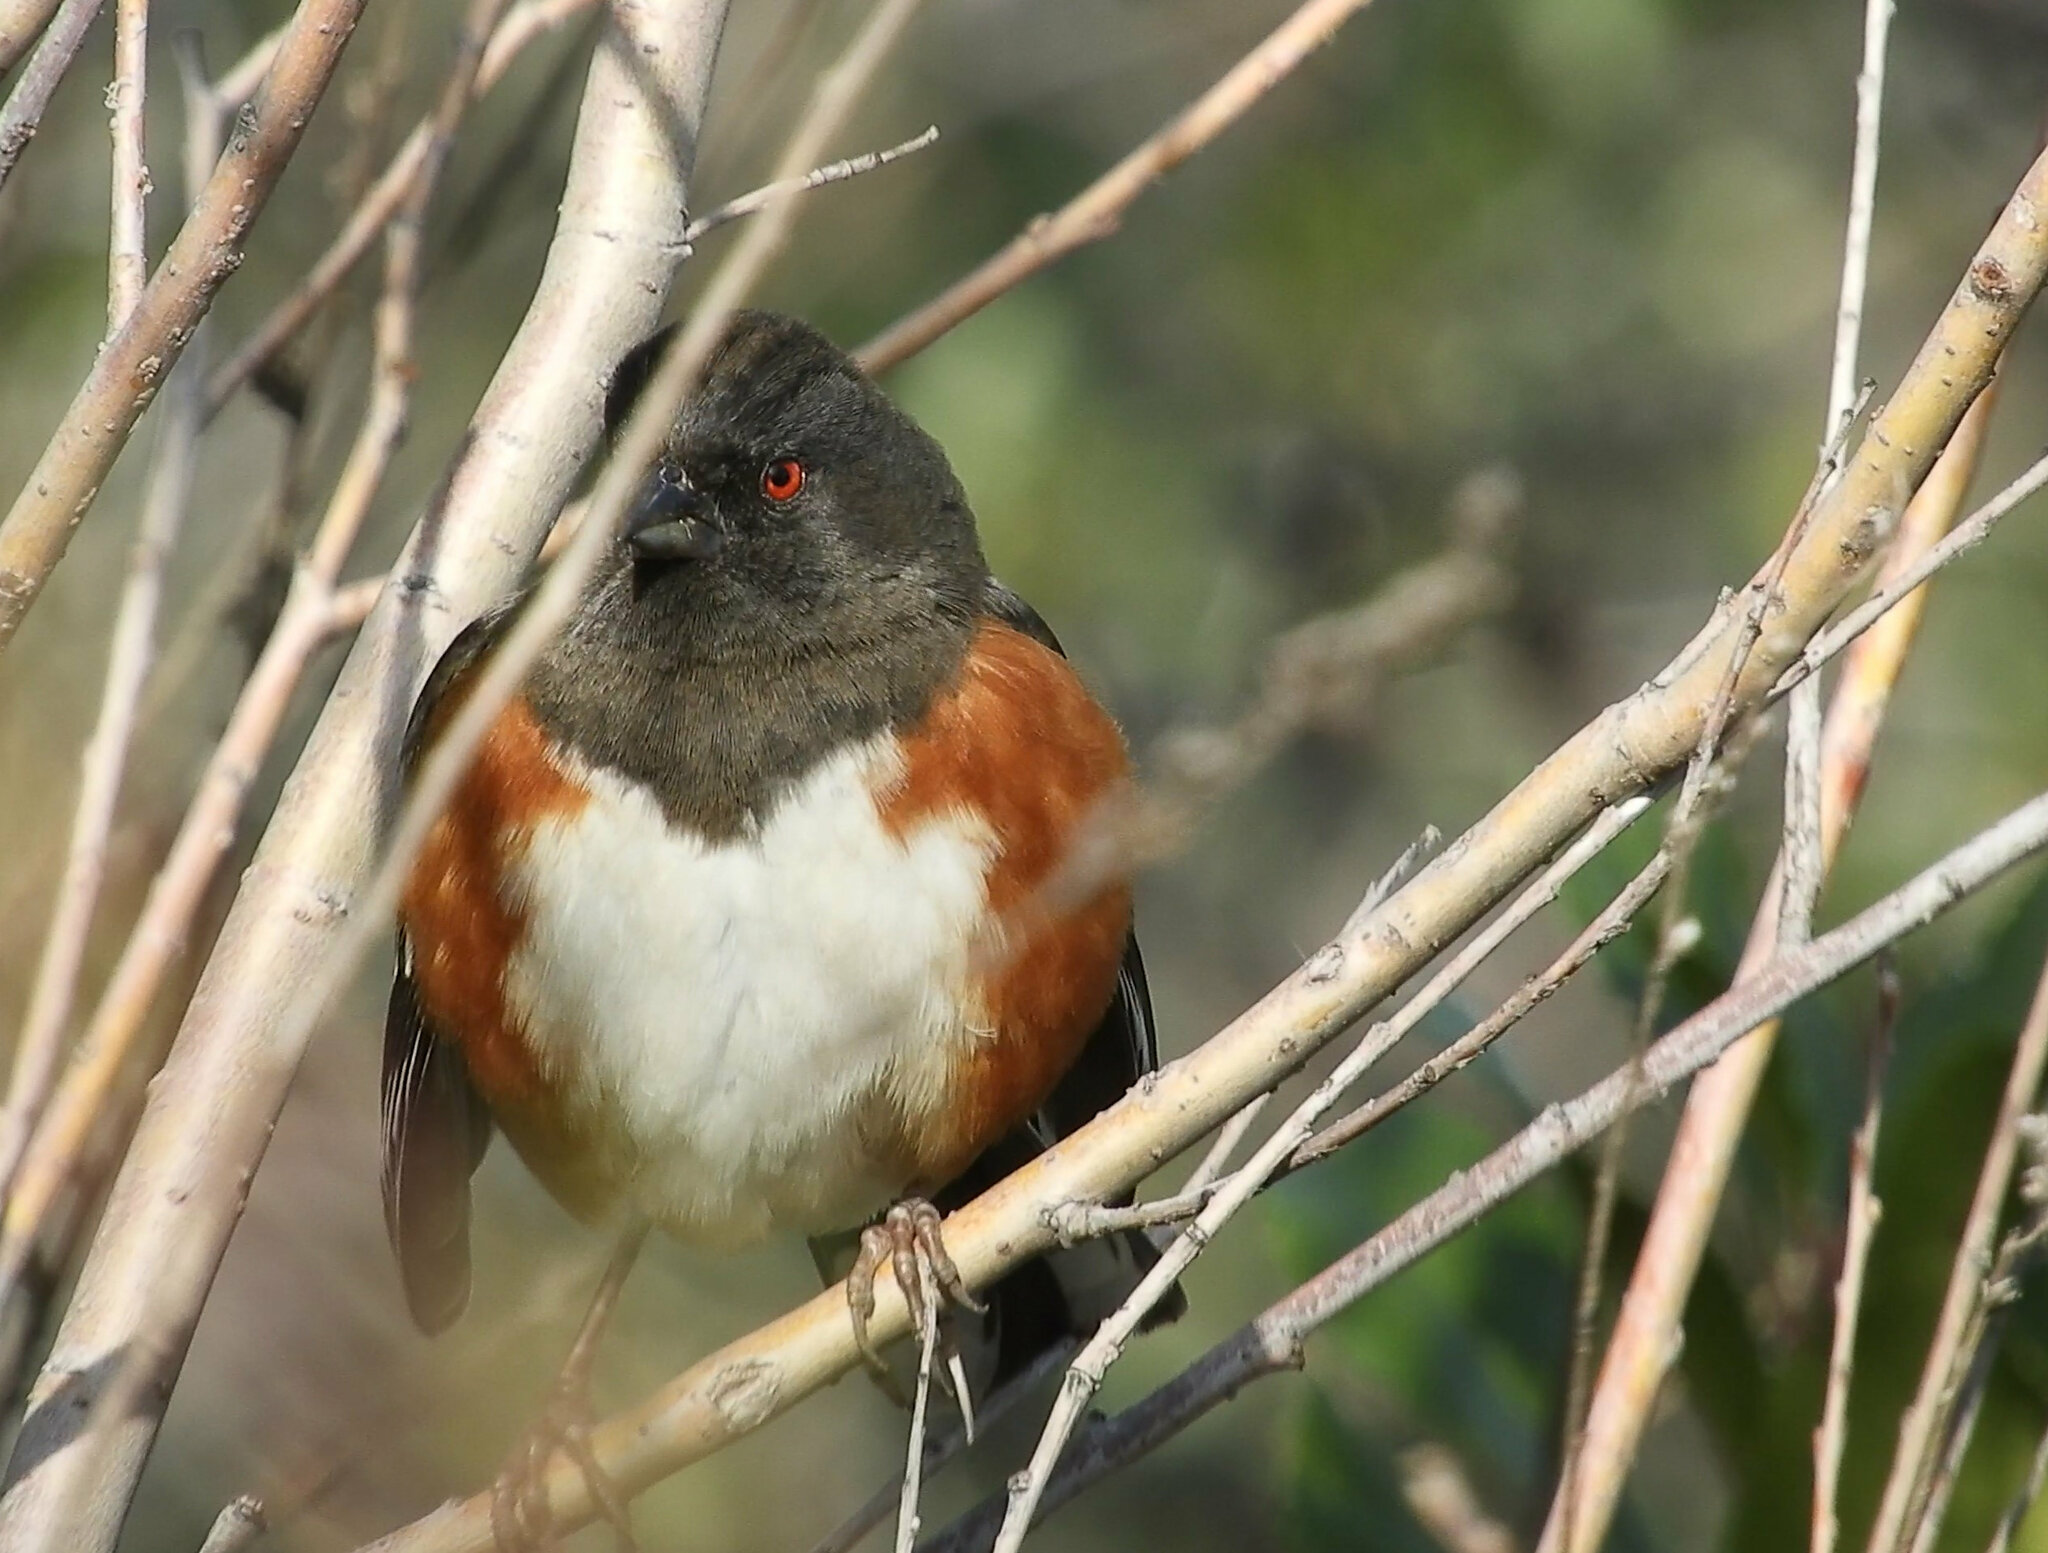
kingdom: Animalia
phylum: Chordata
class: Aves
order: Passeriformes
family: Passerellidae
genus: Pipilo
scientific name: Pipilo maculatus
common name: Spotted towhee
